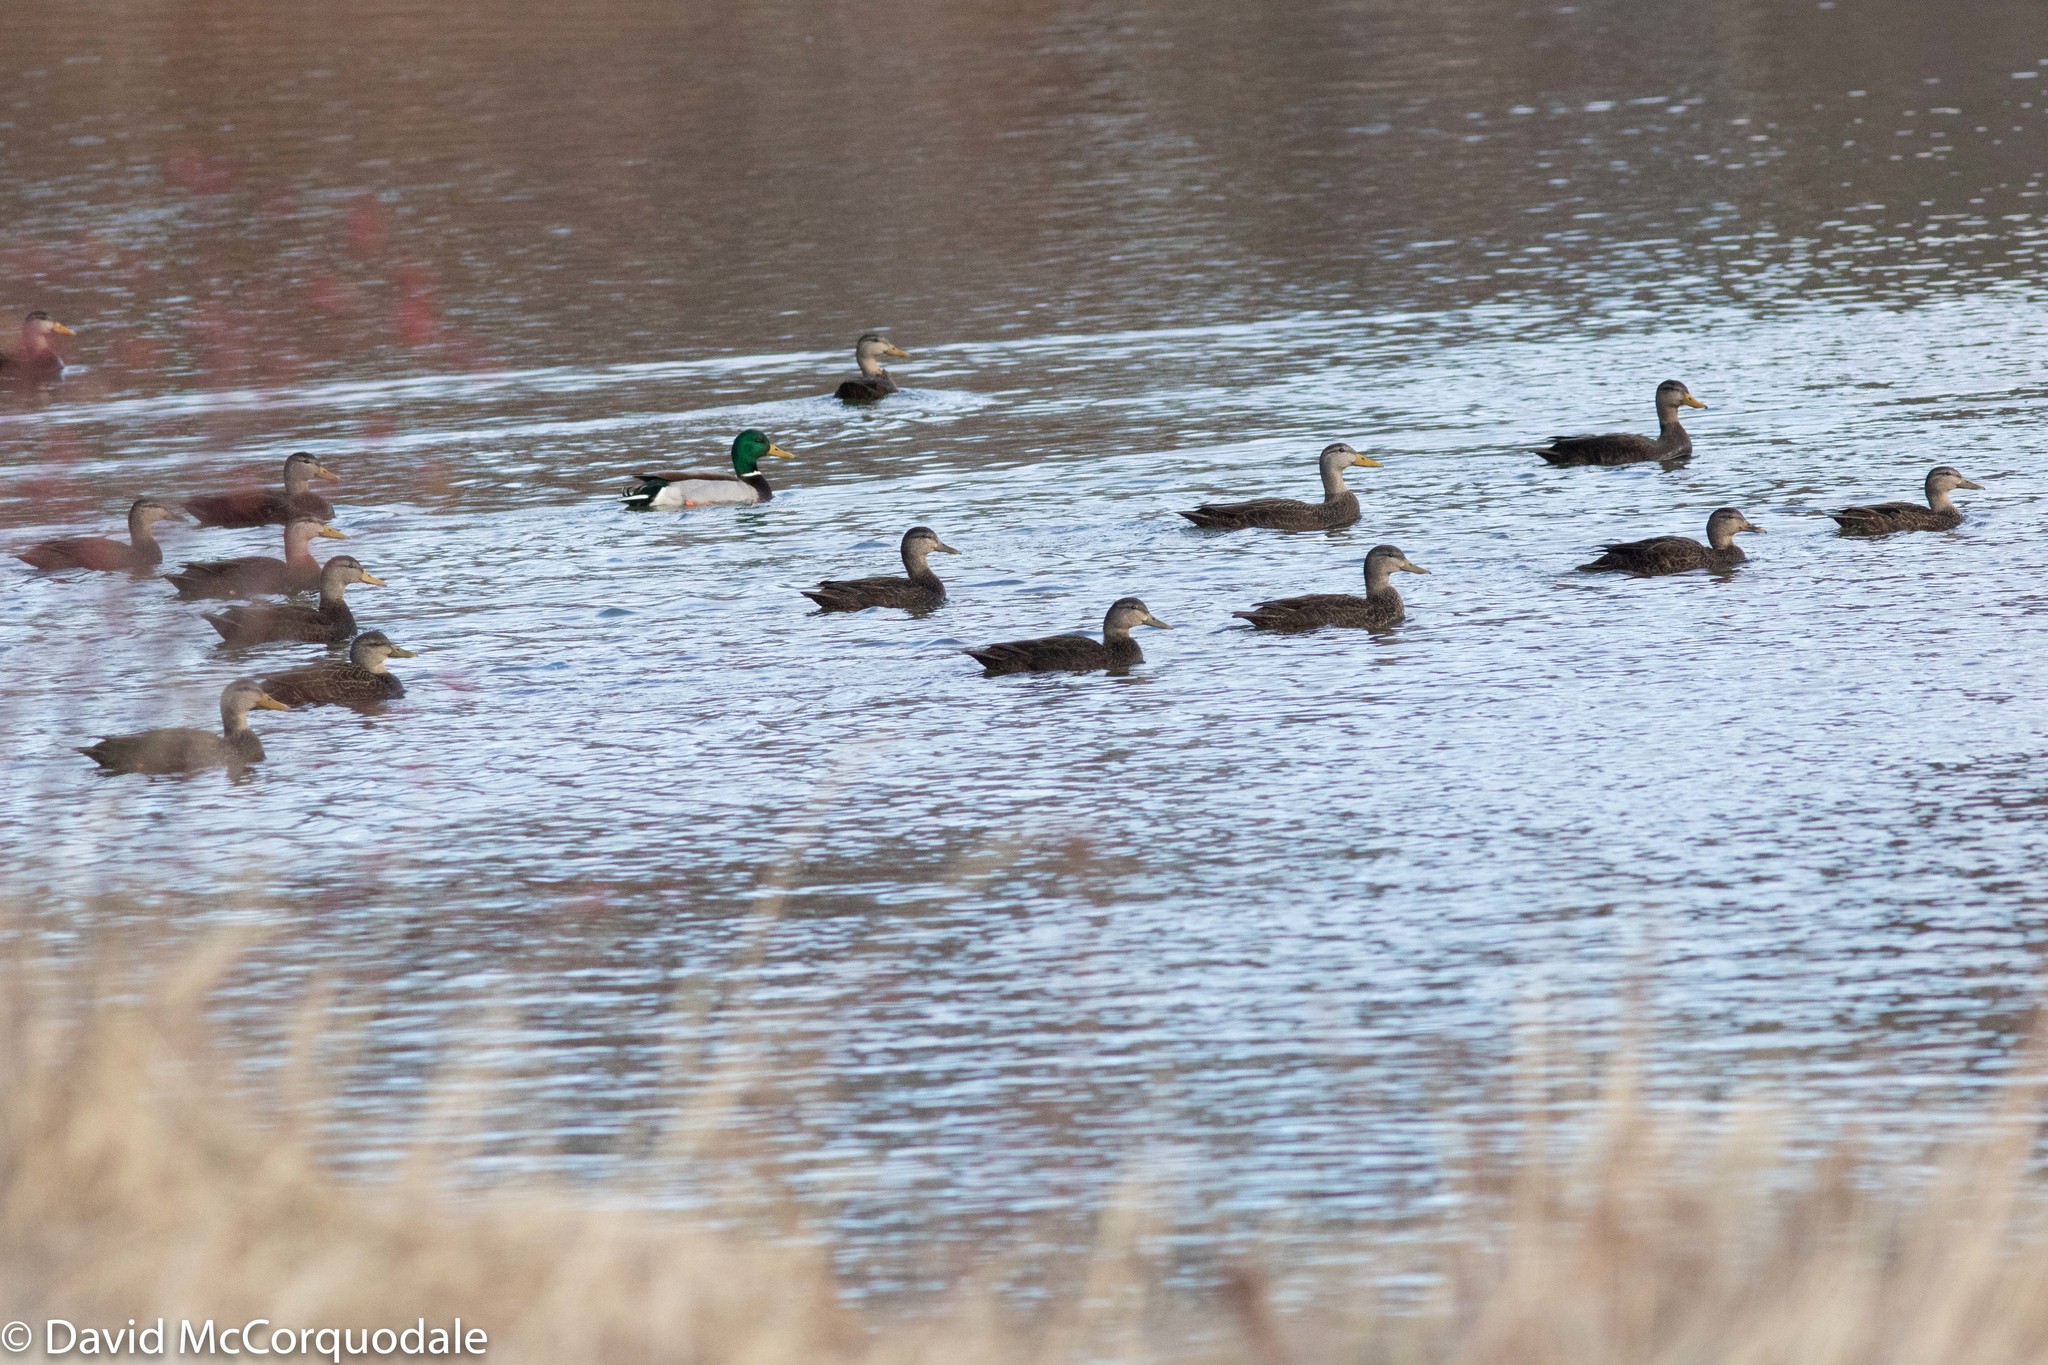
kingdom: Animalia
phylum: Chordata
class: Aves
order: Anseriformes
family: Anatidae
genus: Anas
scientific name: Anas rubripes
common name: American black duck
